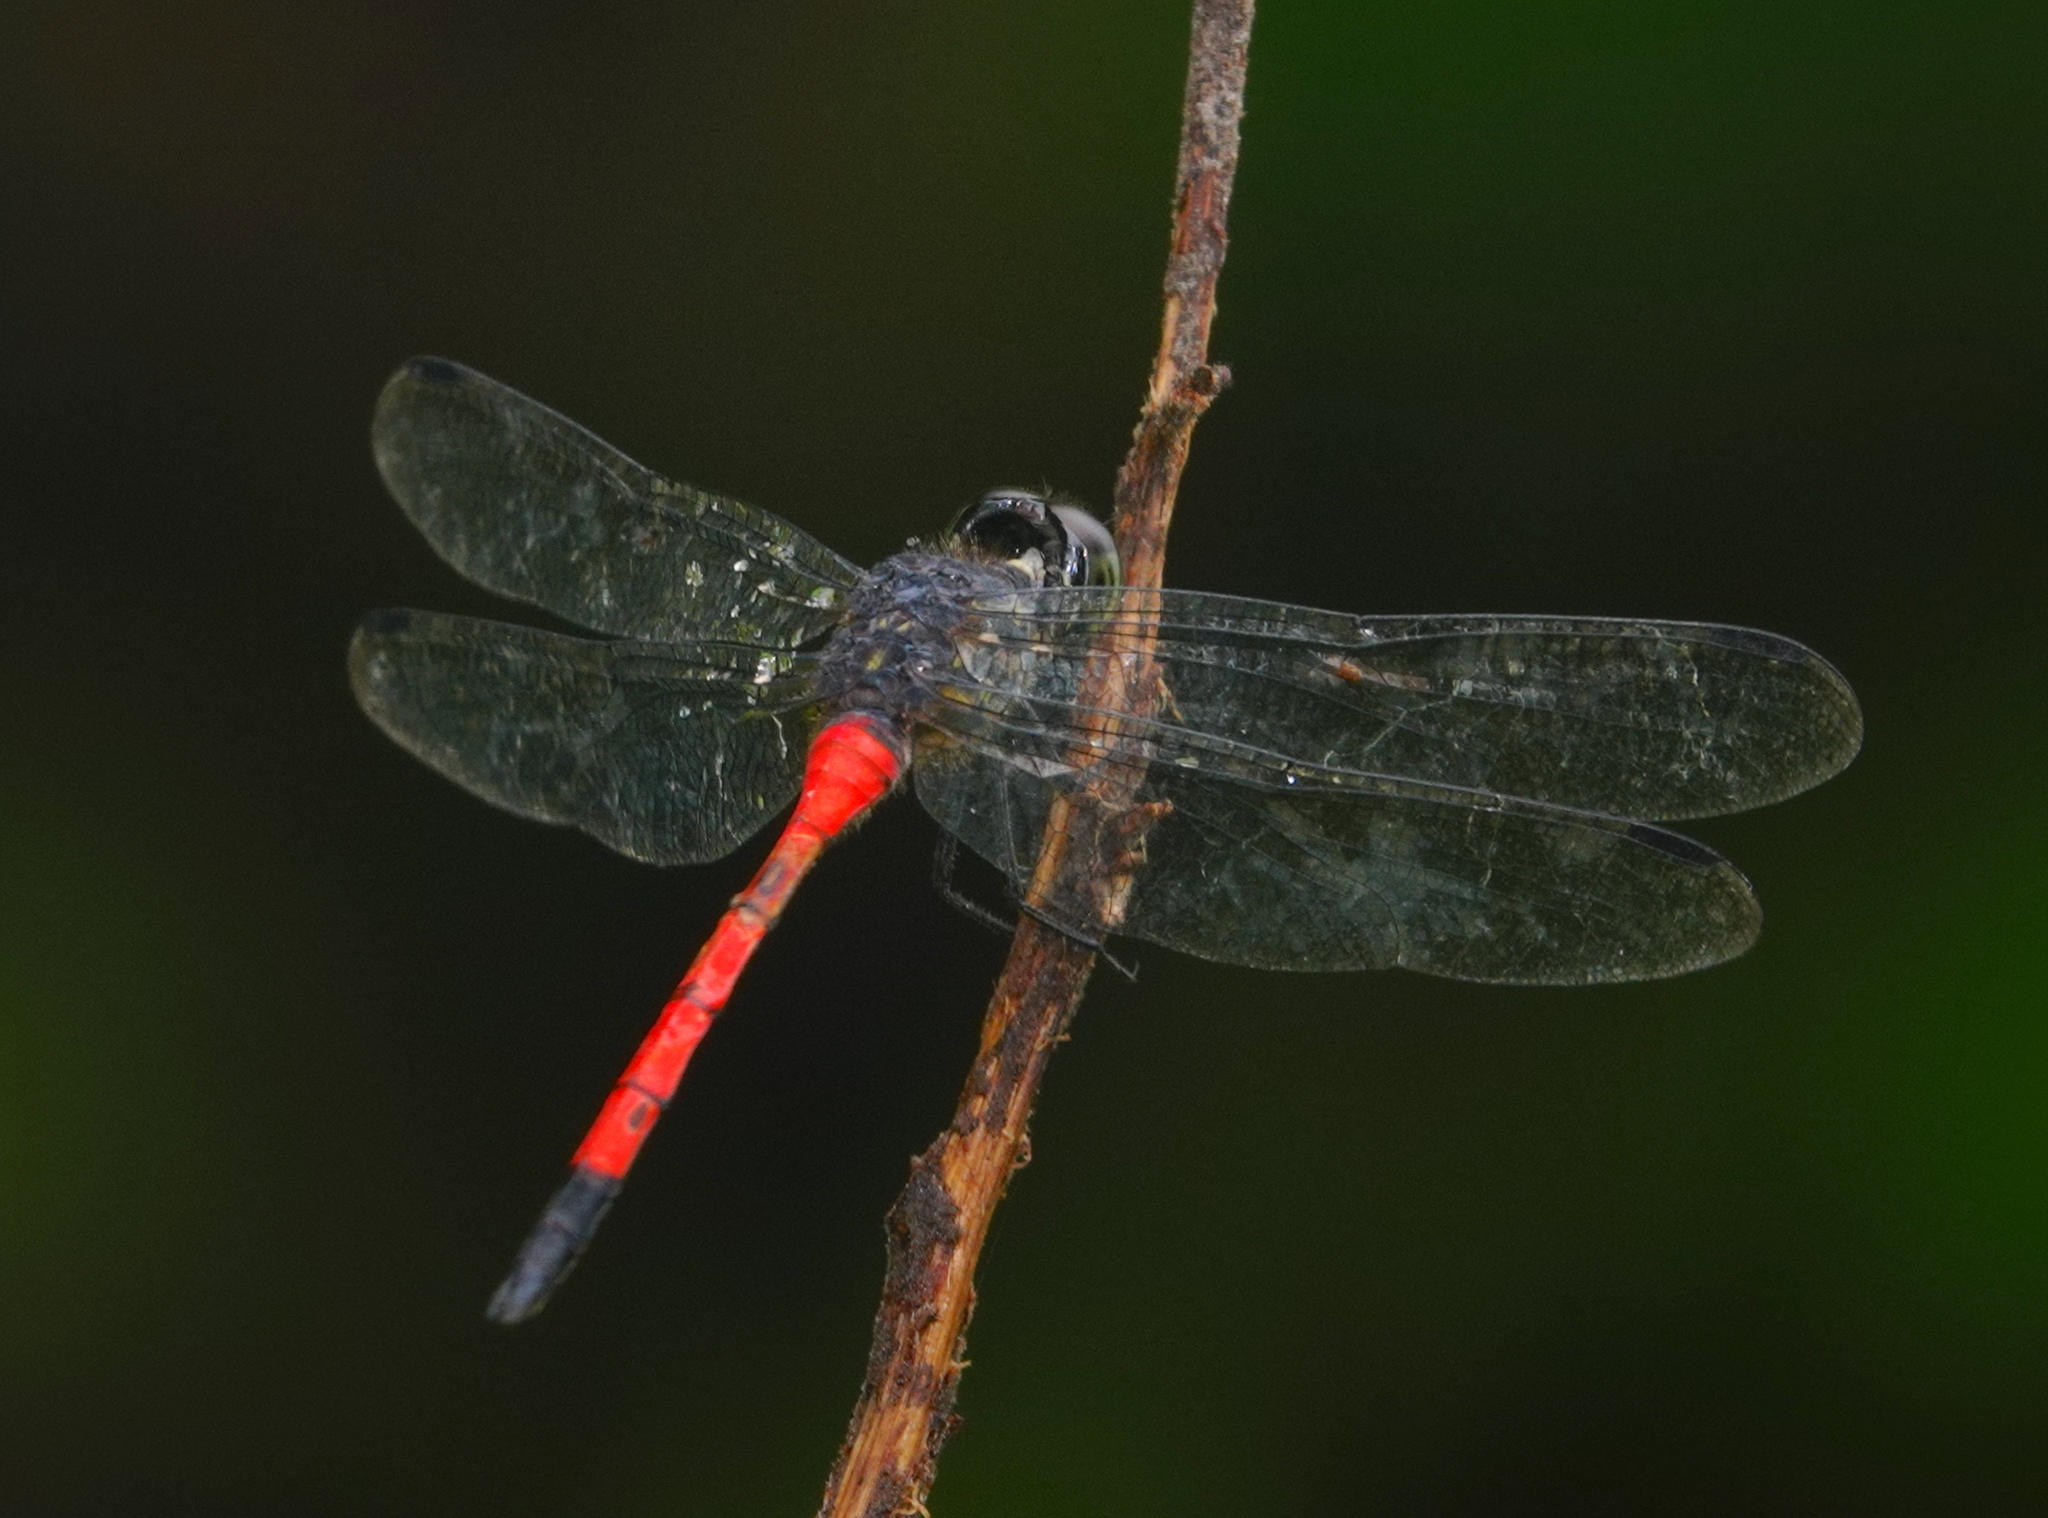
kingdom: Animalia
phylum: Arthropoda
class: Insecta
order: Odonata
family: Libellulidae
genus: Agrionoptera
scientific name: Agrionoptera insignis
